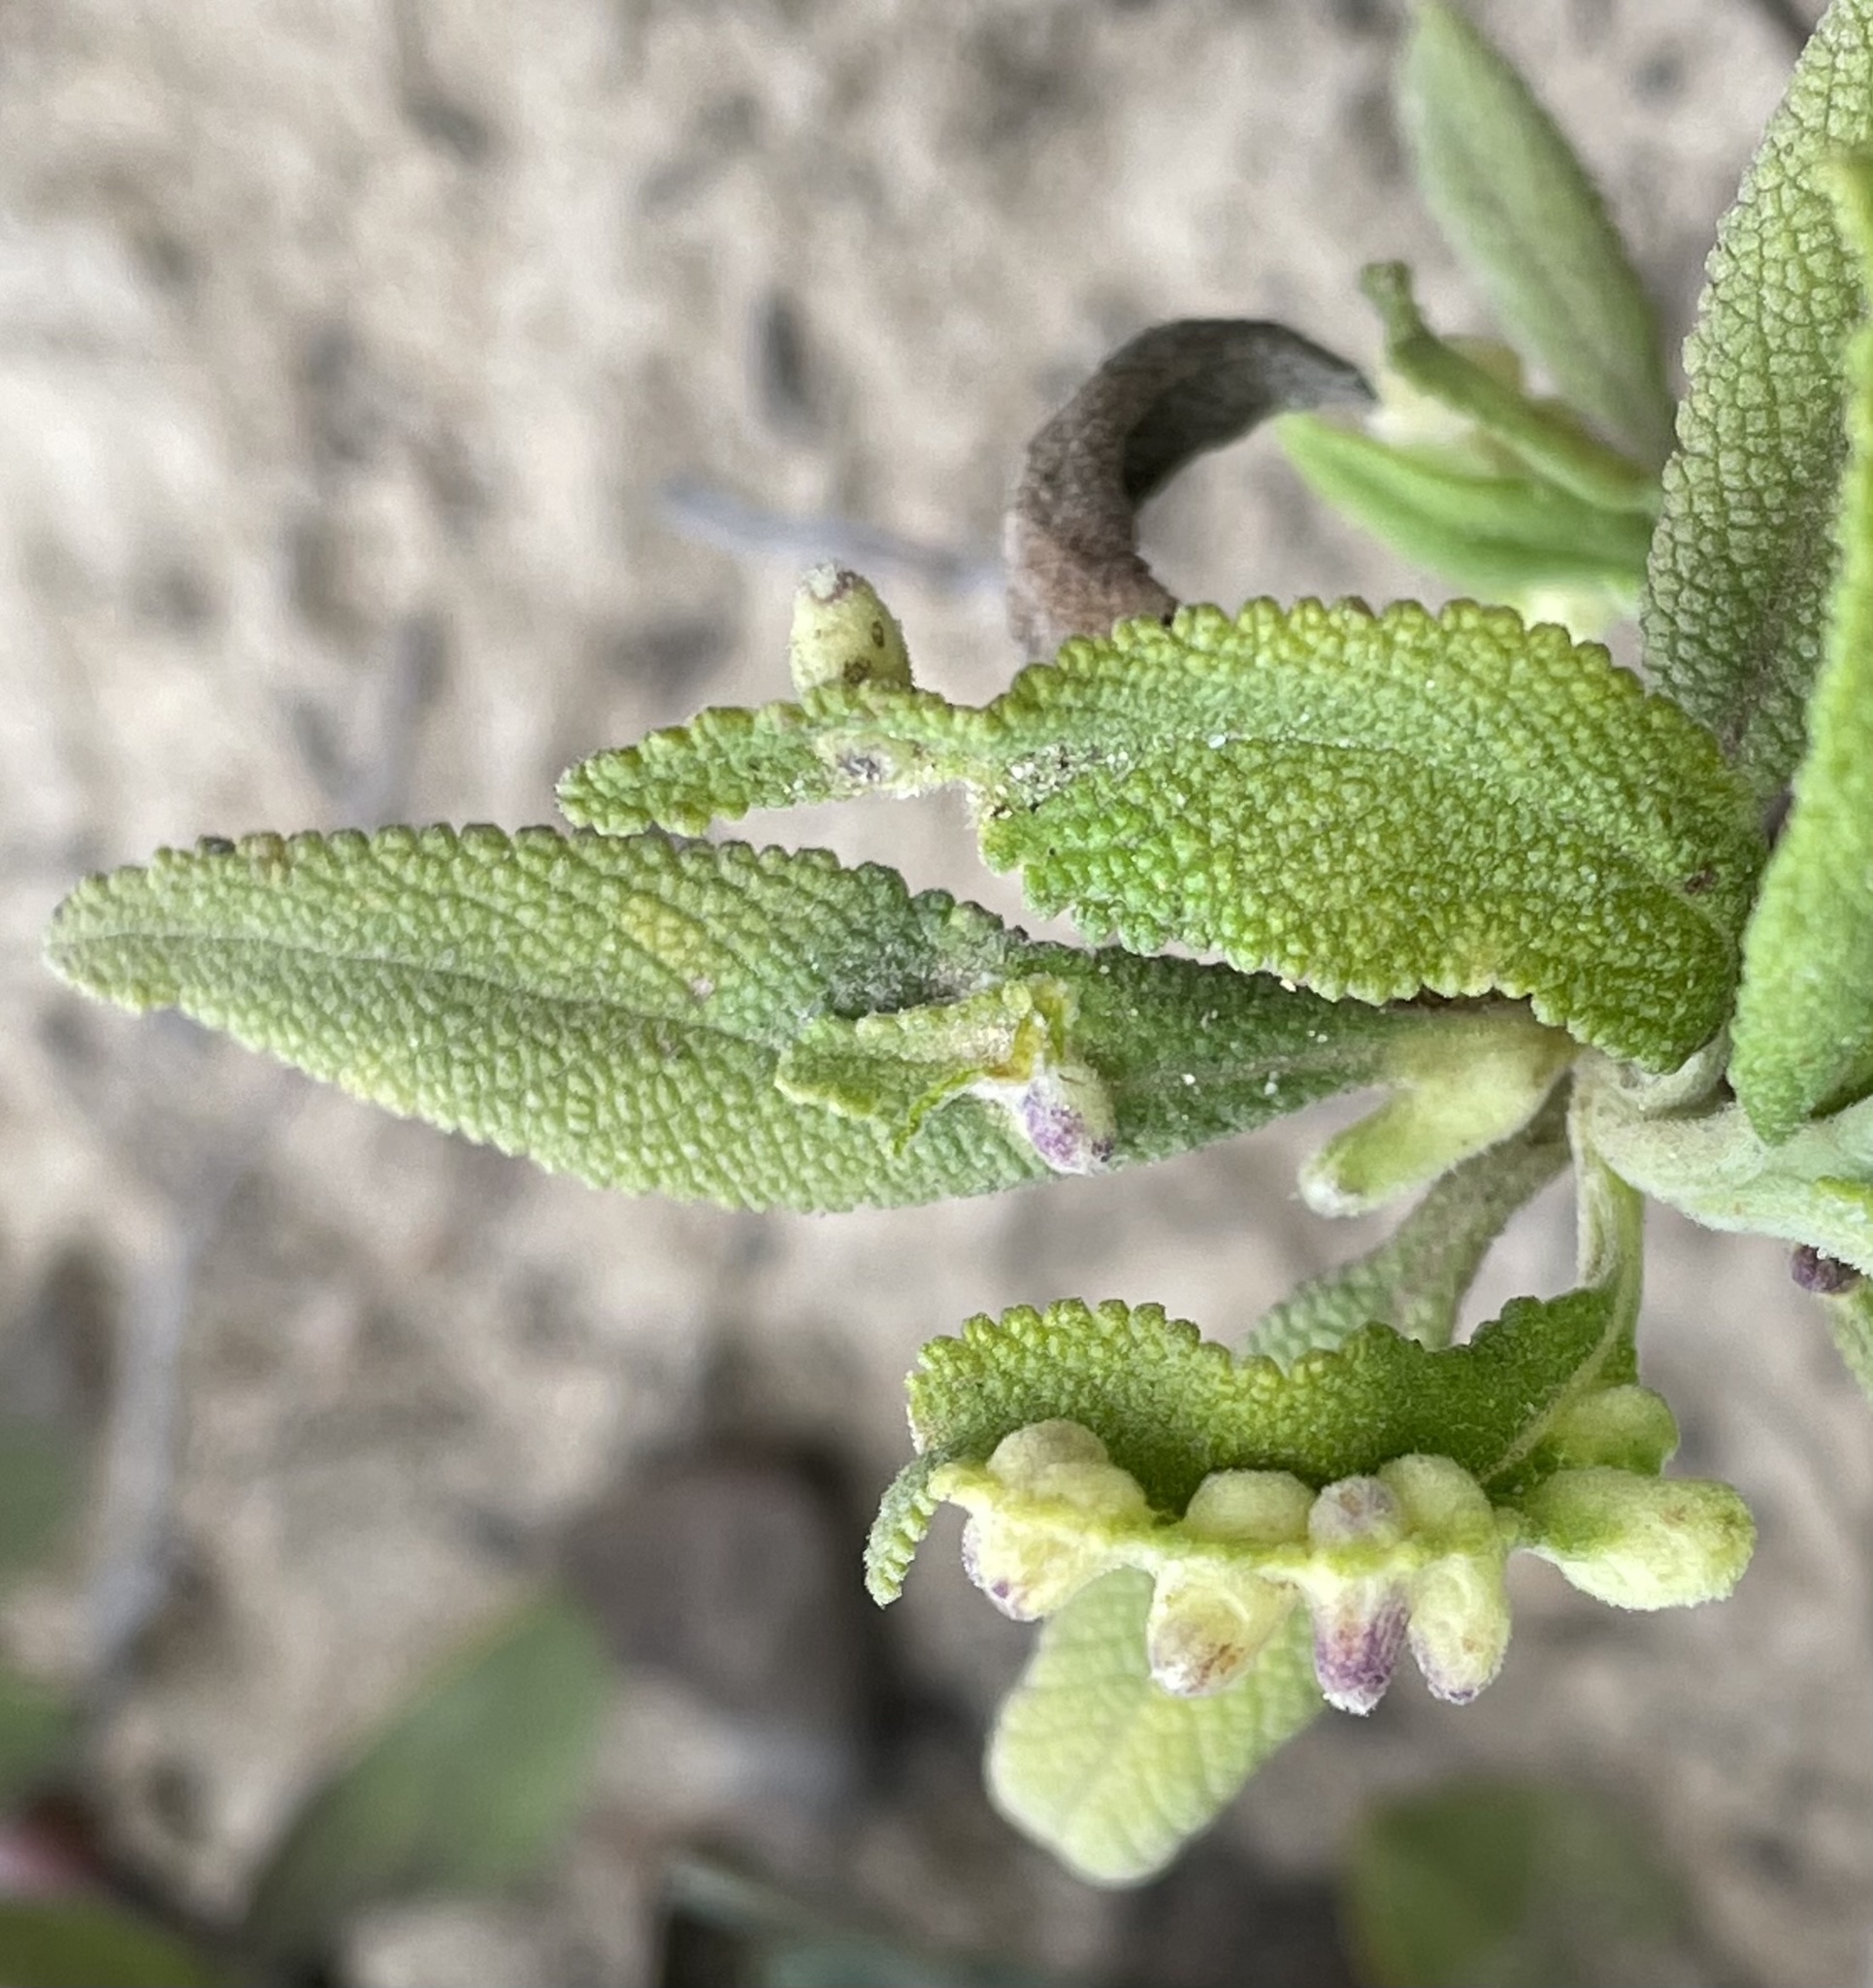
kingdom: Animalia
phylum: Arthropoda
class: Insecta
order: Diptera
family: Cecidomyiidae
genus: Rhopalomyia
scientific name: Rhopalomyia audibertiae
